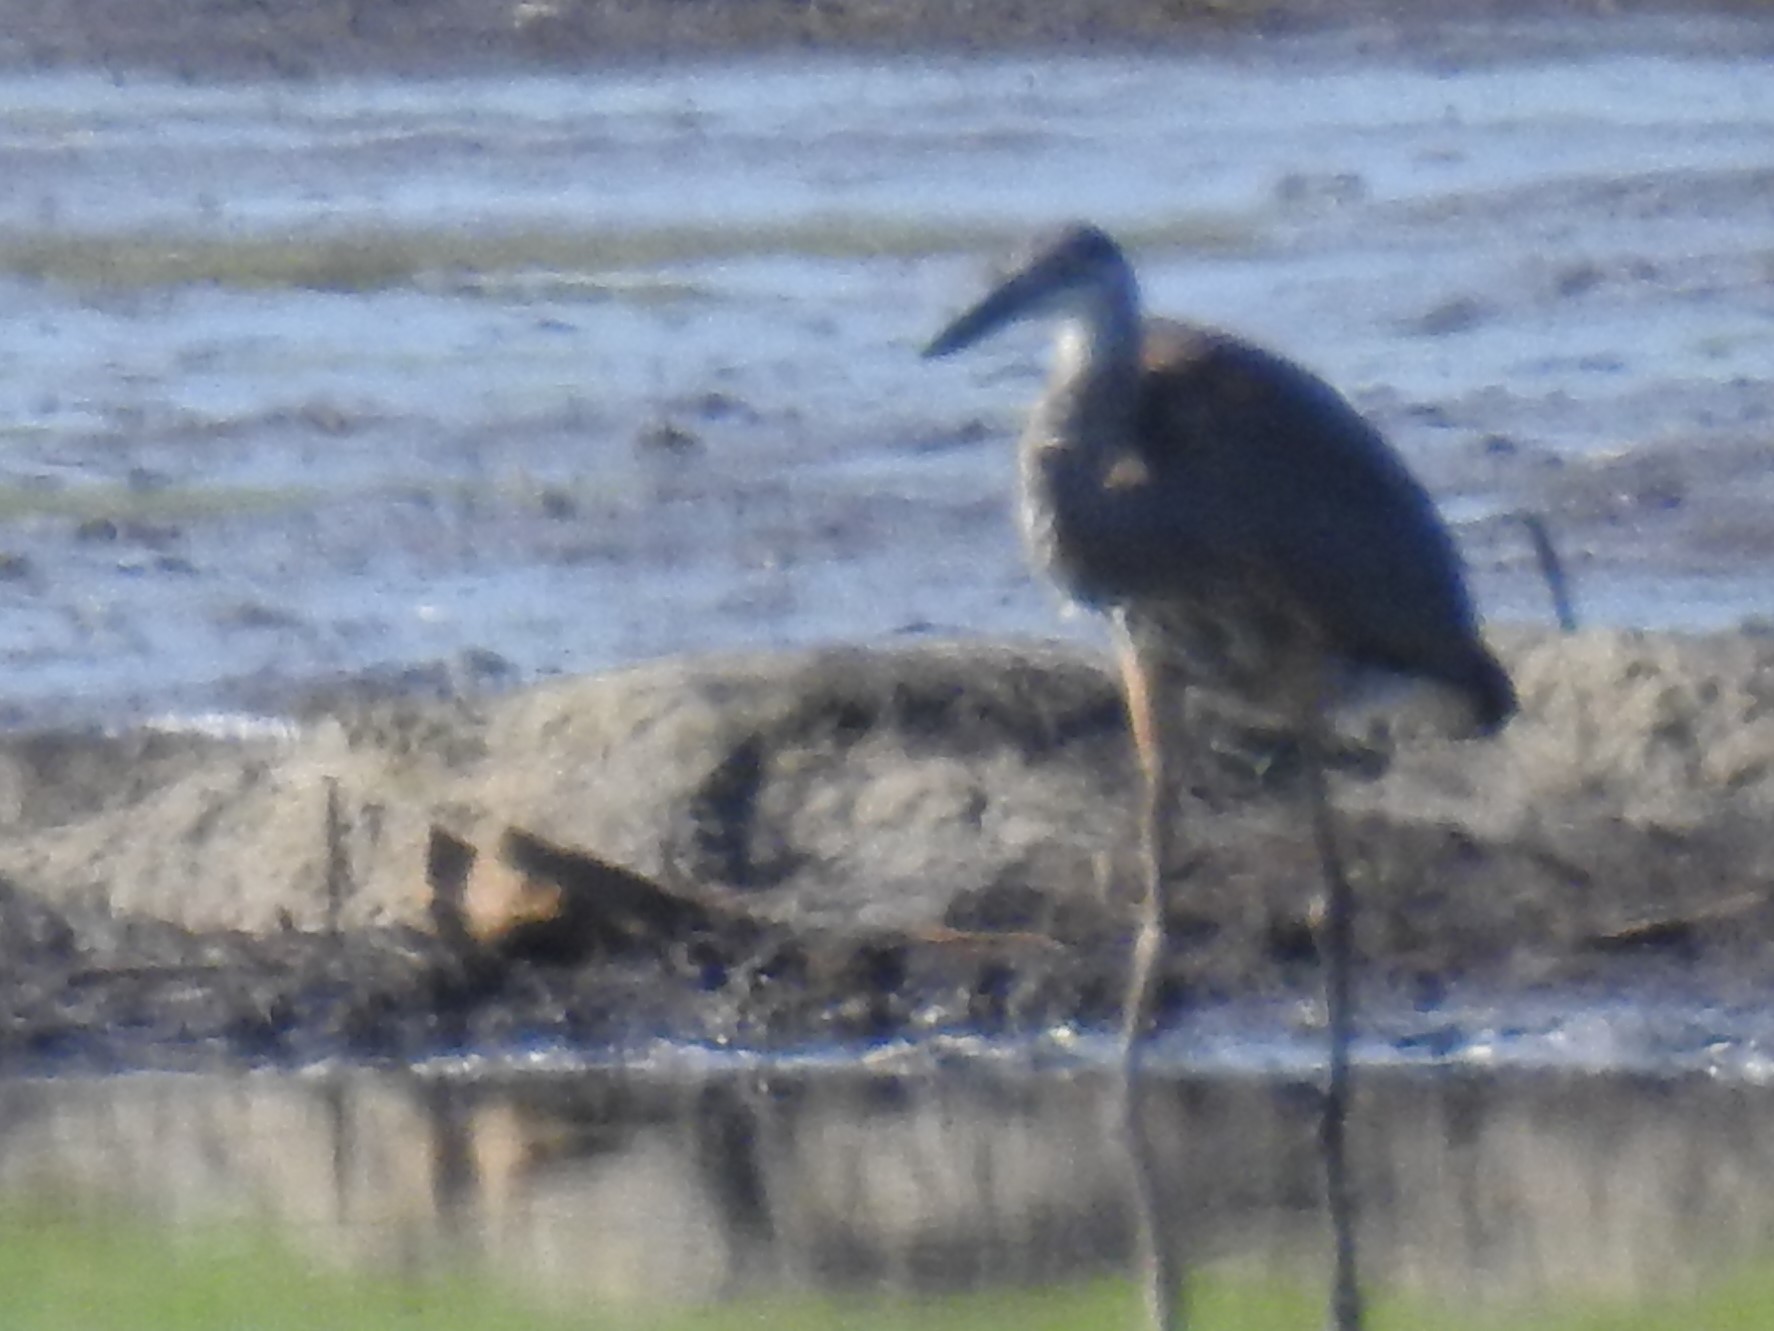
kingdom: Animalia
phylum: Chordata
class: Aves
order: Pelecaniformes
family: Ardeidae
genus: Ardea
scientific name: Ardea herodias
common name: Great blue heron
